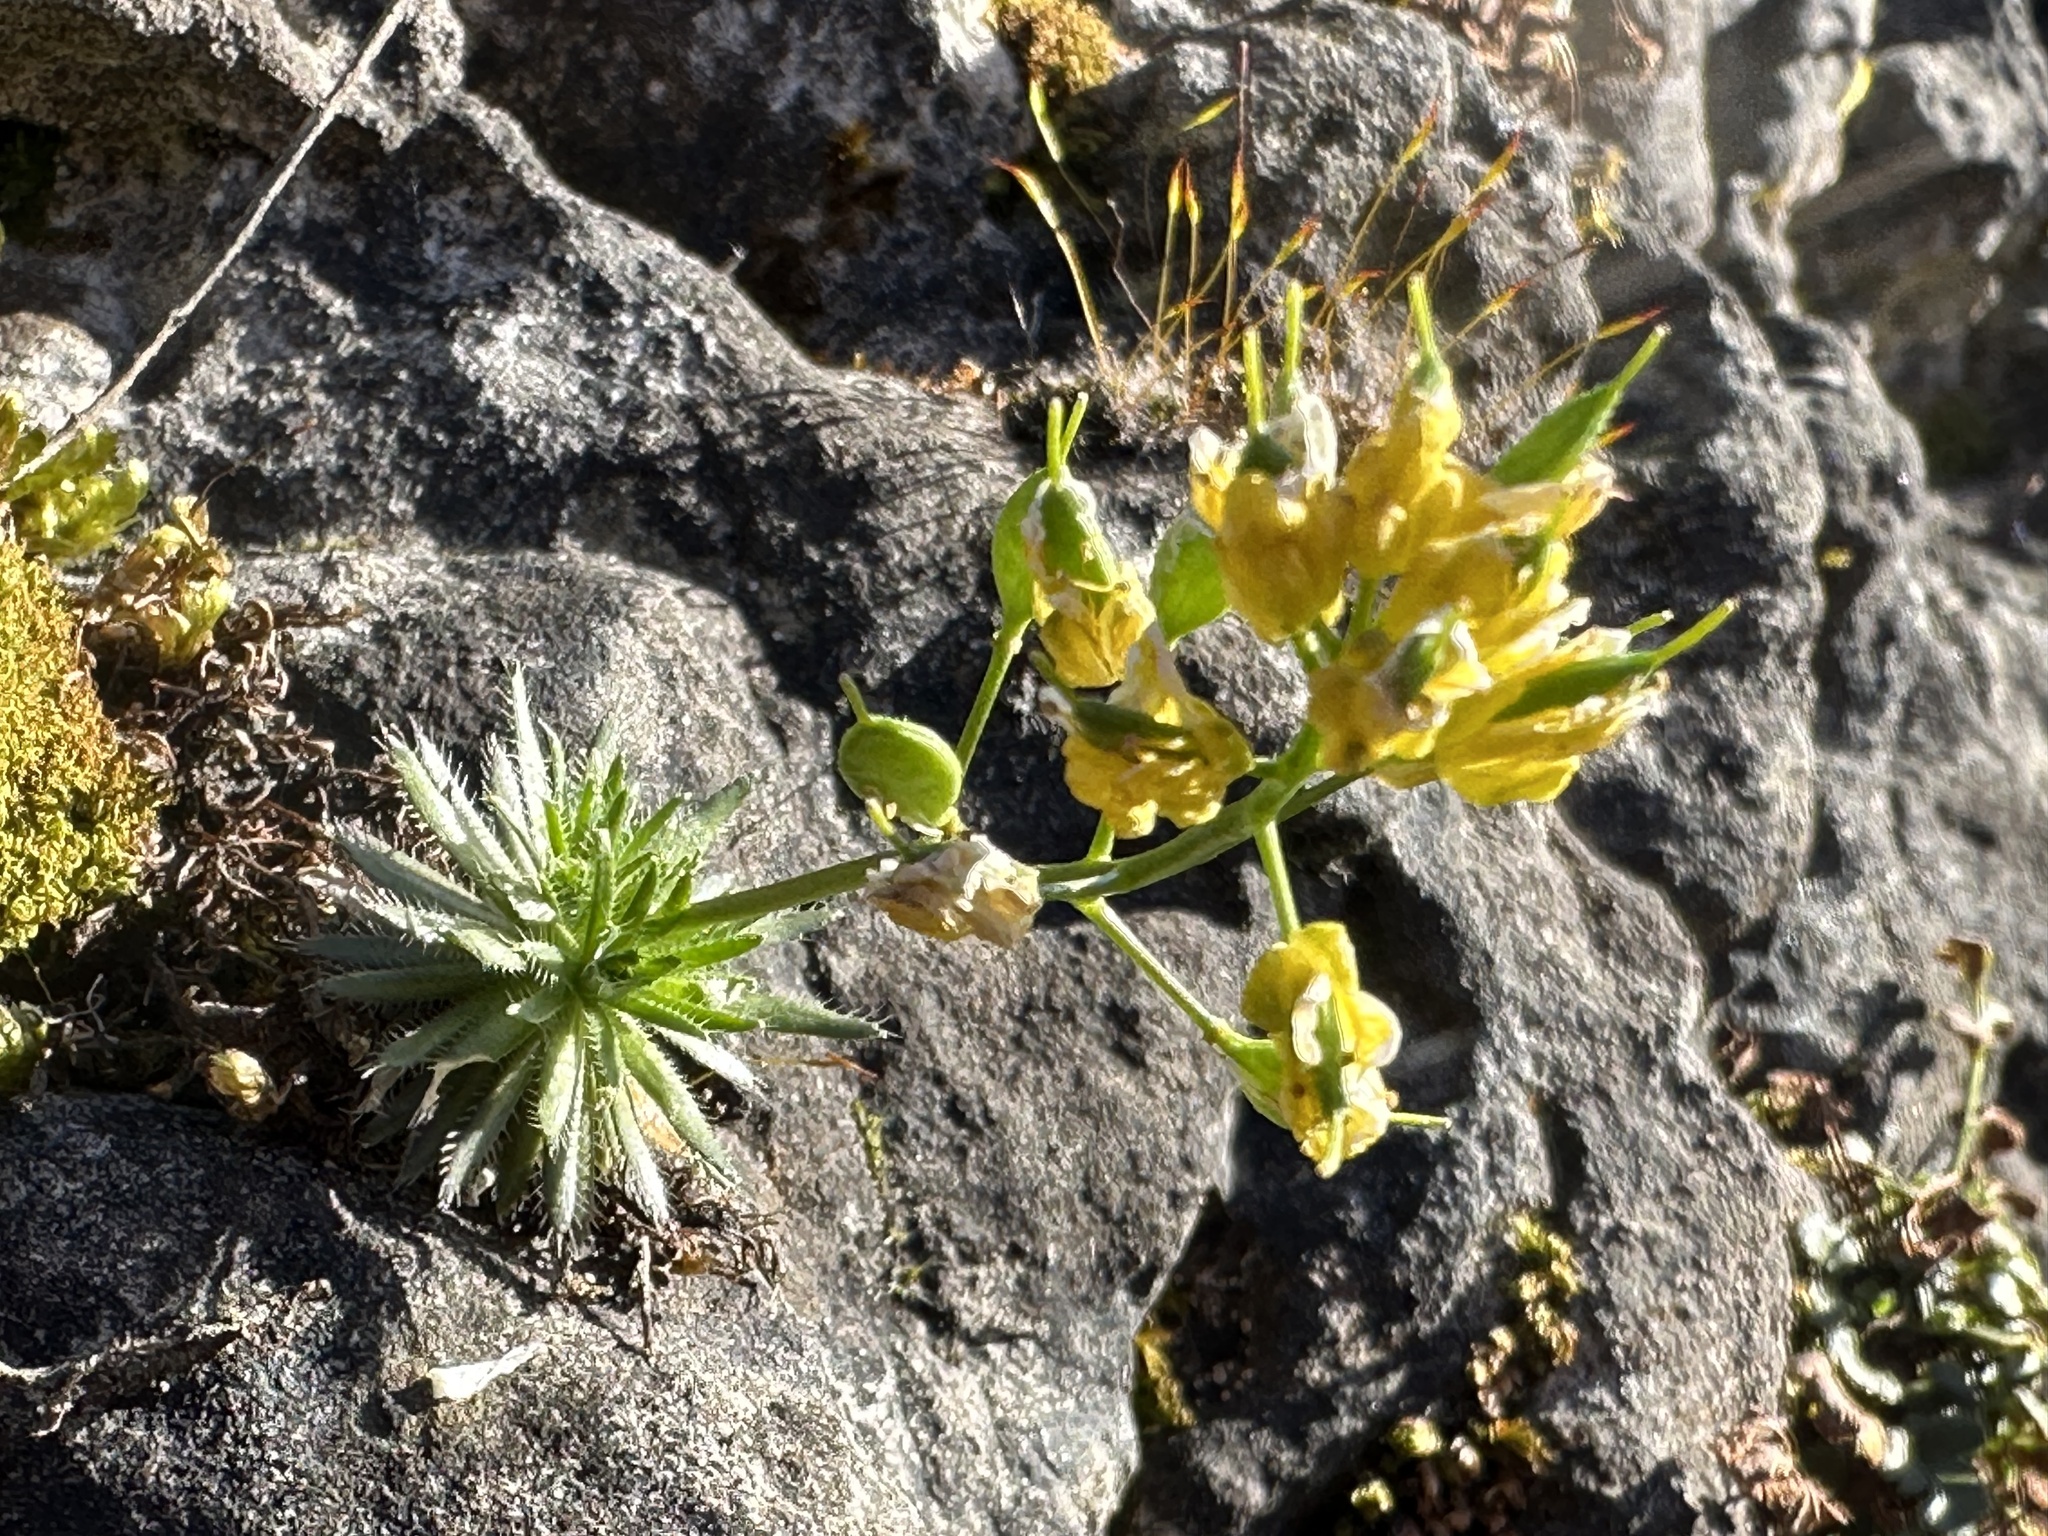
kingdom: Plantae
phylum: Tracheophyta
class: Magnoliopsida
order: Brassicales
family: Brassicaceae
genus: Draba
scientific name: Draba aizoides
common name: Yellow whitlowgrass
